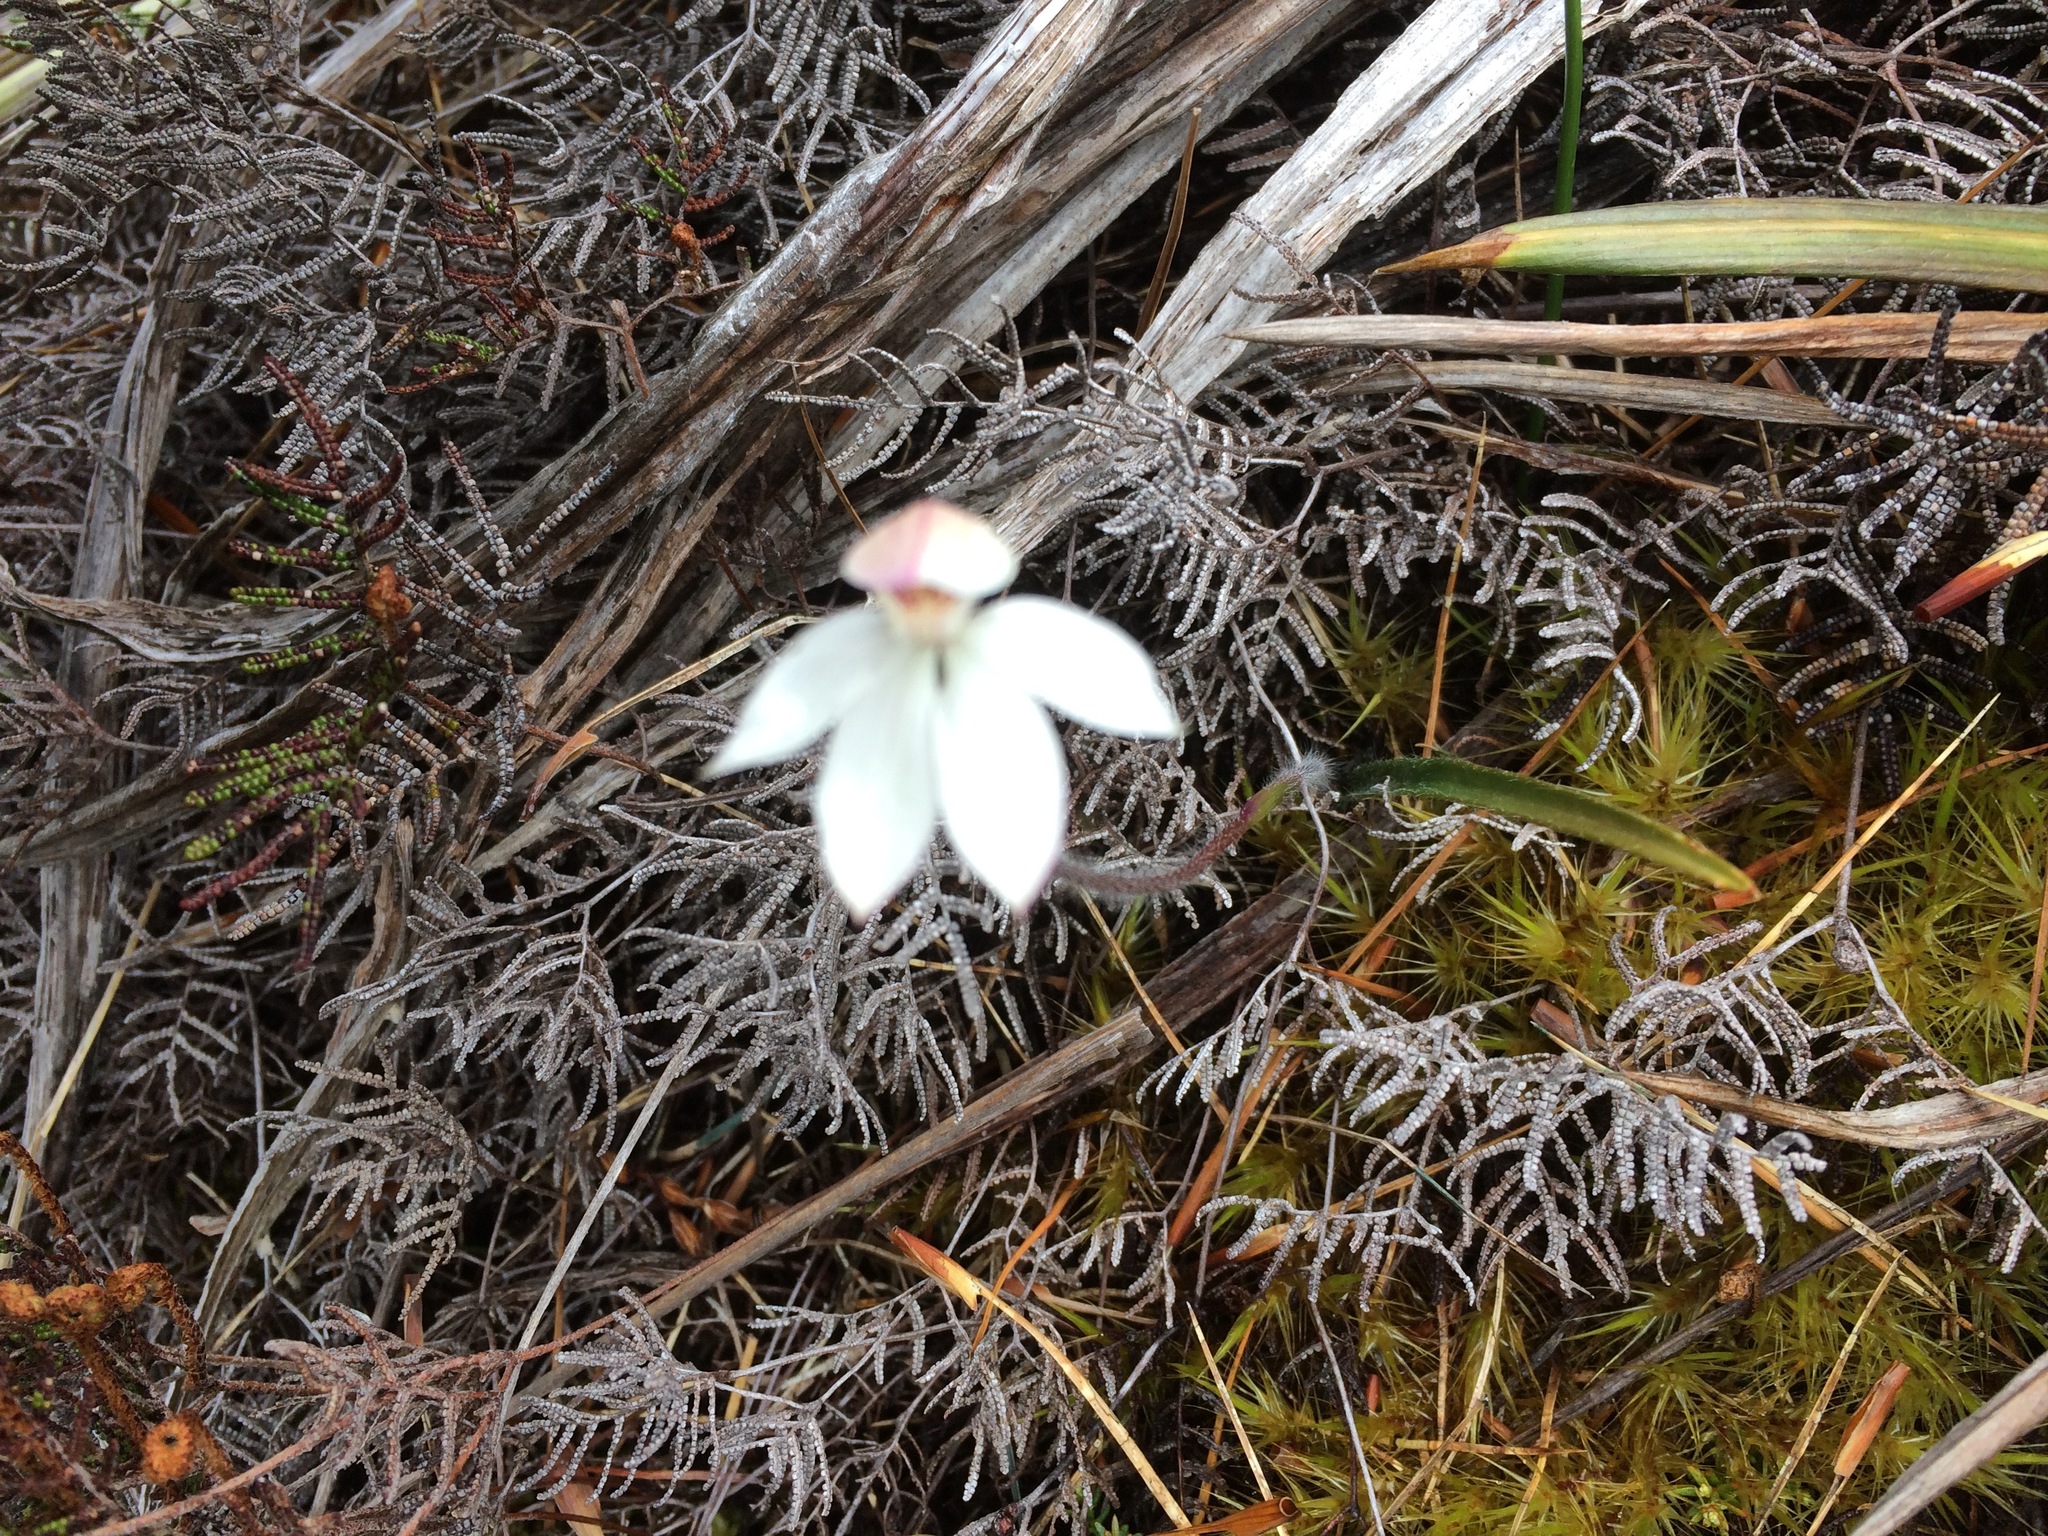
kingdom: Plantae
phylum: Tracheophyta
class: Liliopsida
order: Asparagales
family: Orchidaceae
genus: Caladenia
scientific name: Caladenia lyallii
